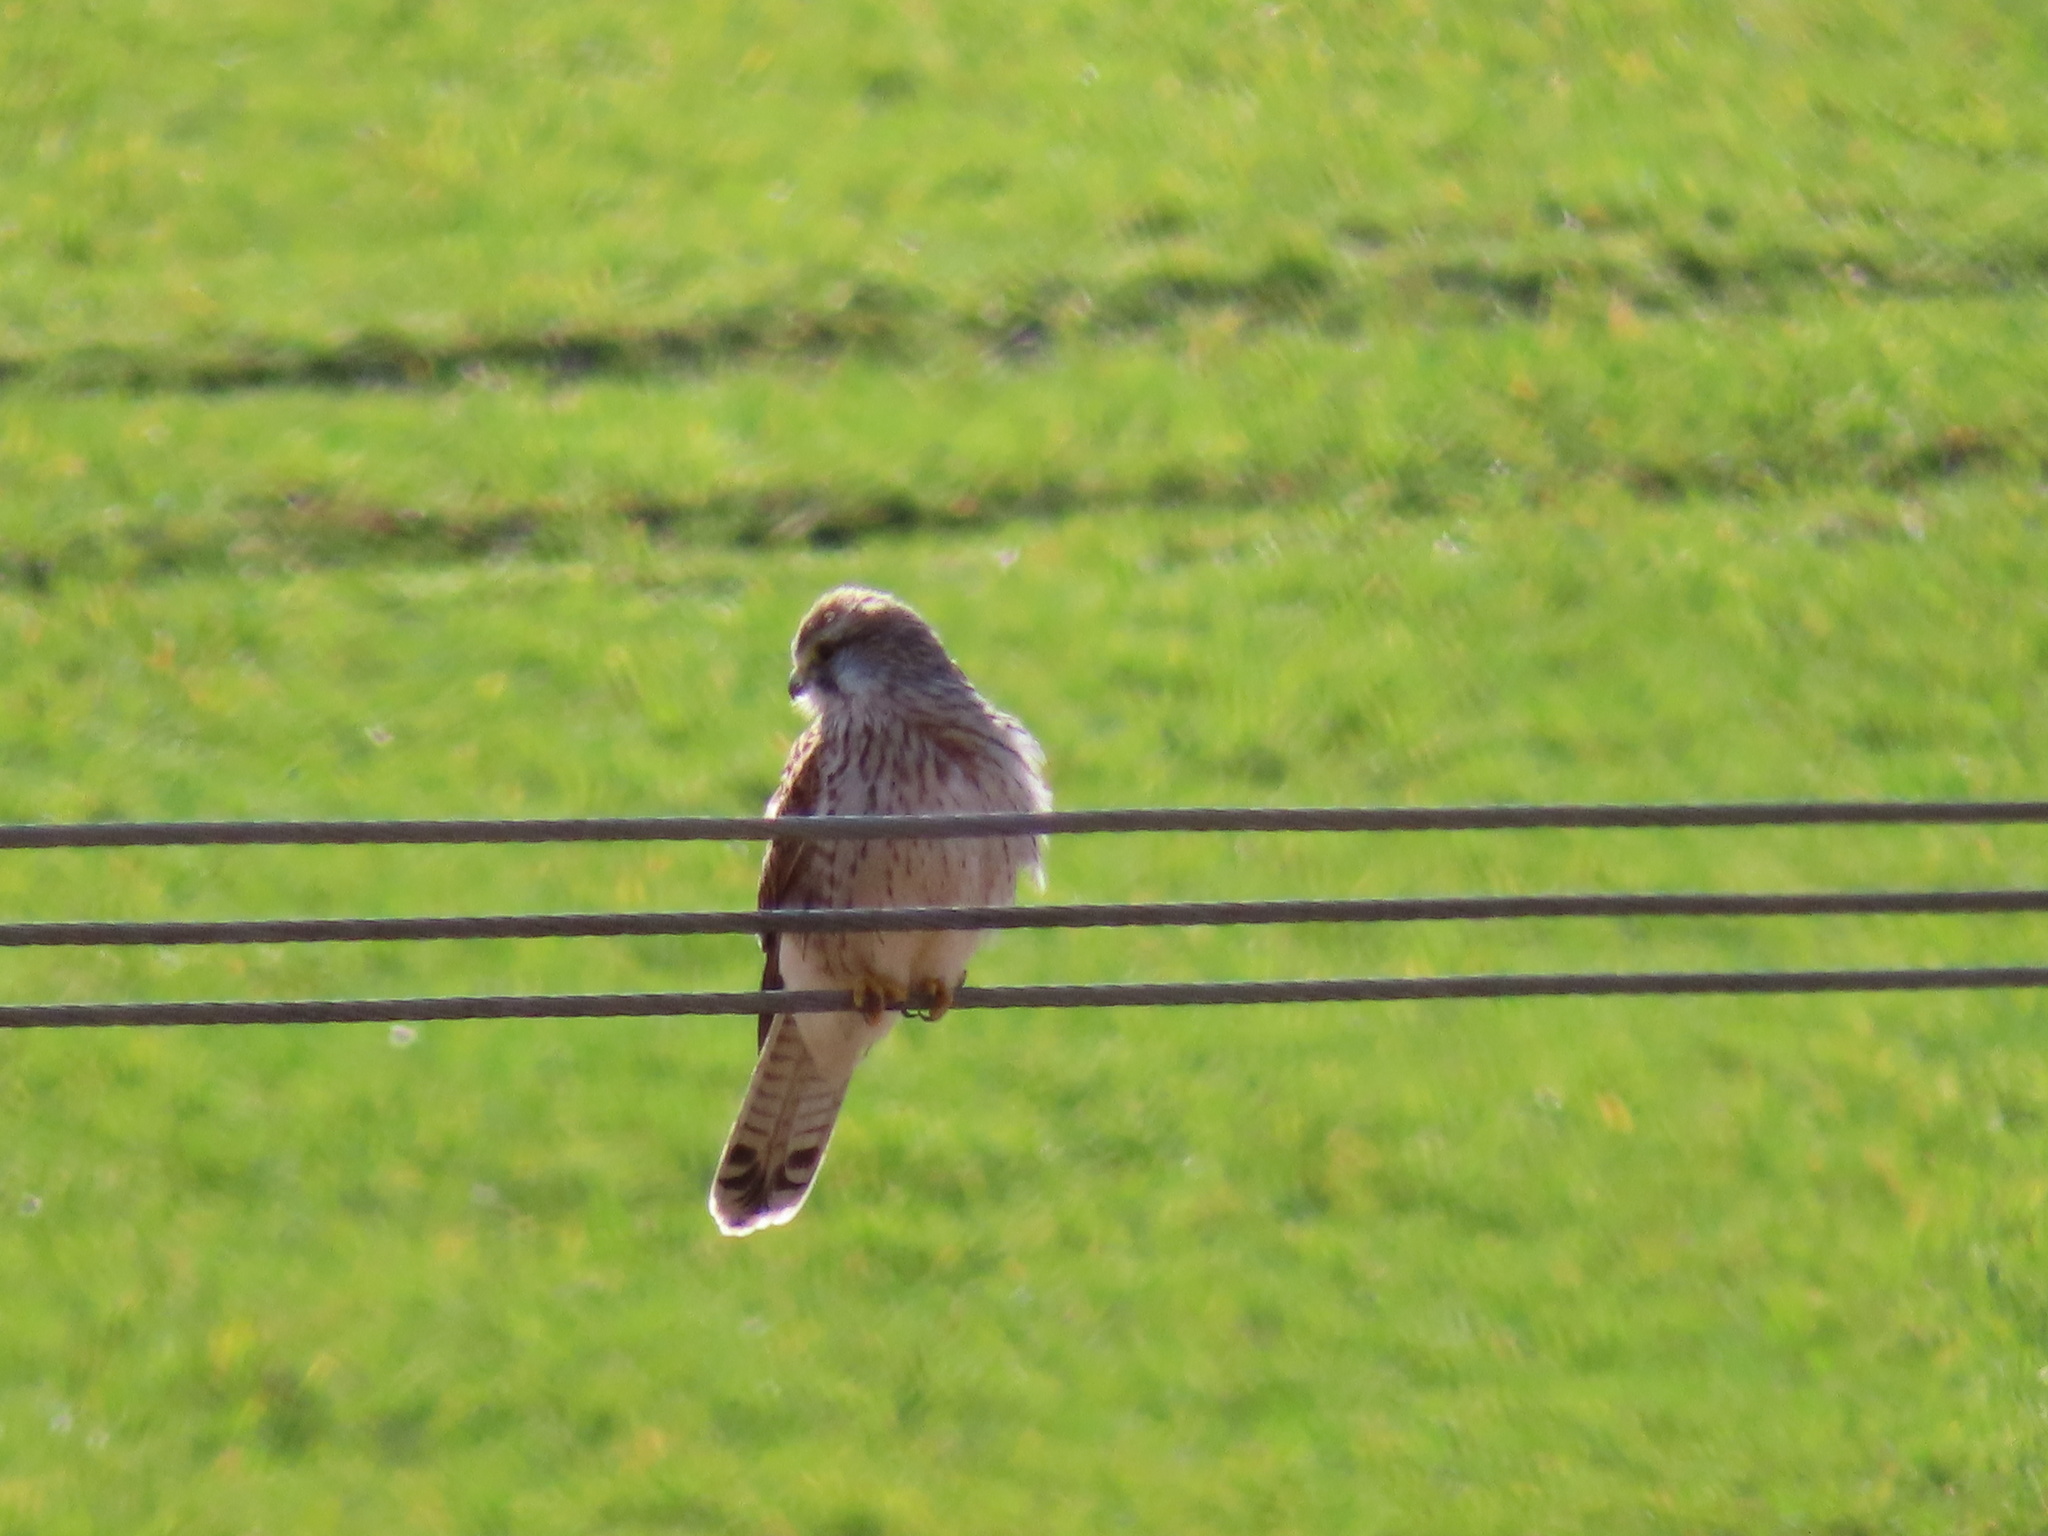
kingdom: Animalia
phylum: Chordata
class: Aves
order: Falconiformes
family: Falconidae
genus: Falco
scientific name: Falco tinnunculus
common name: Common kestrel
